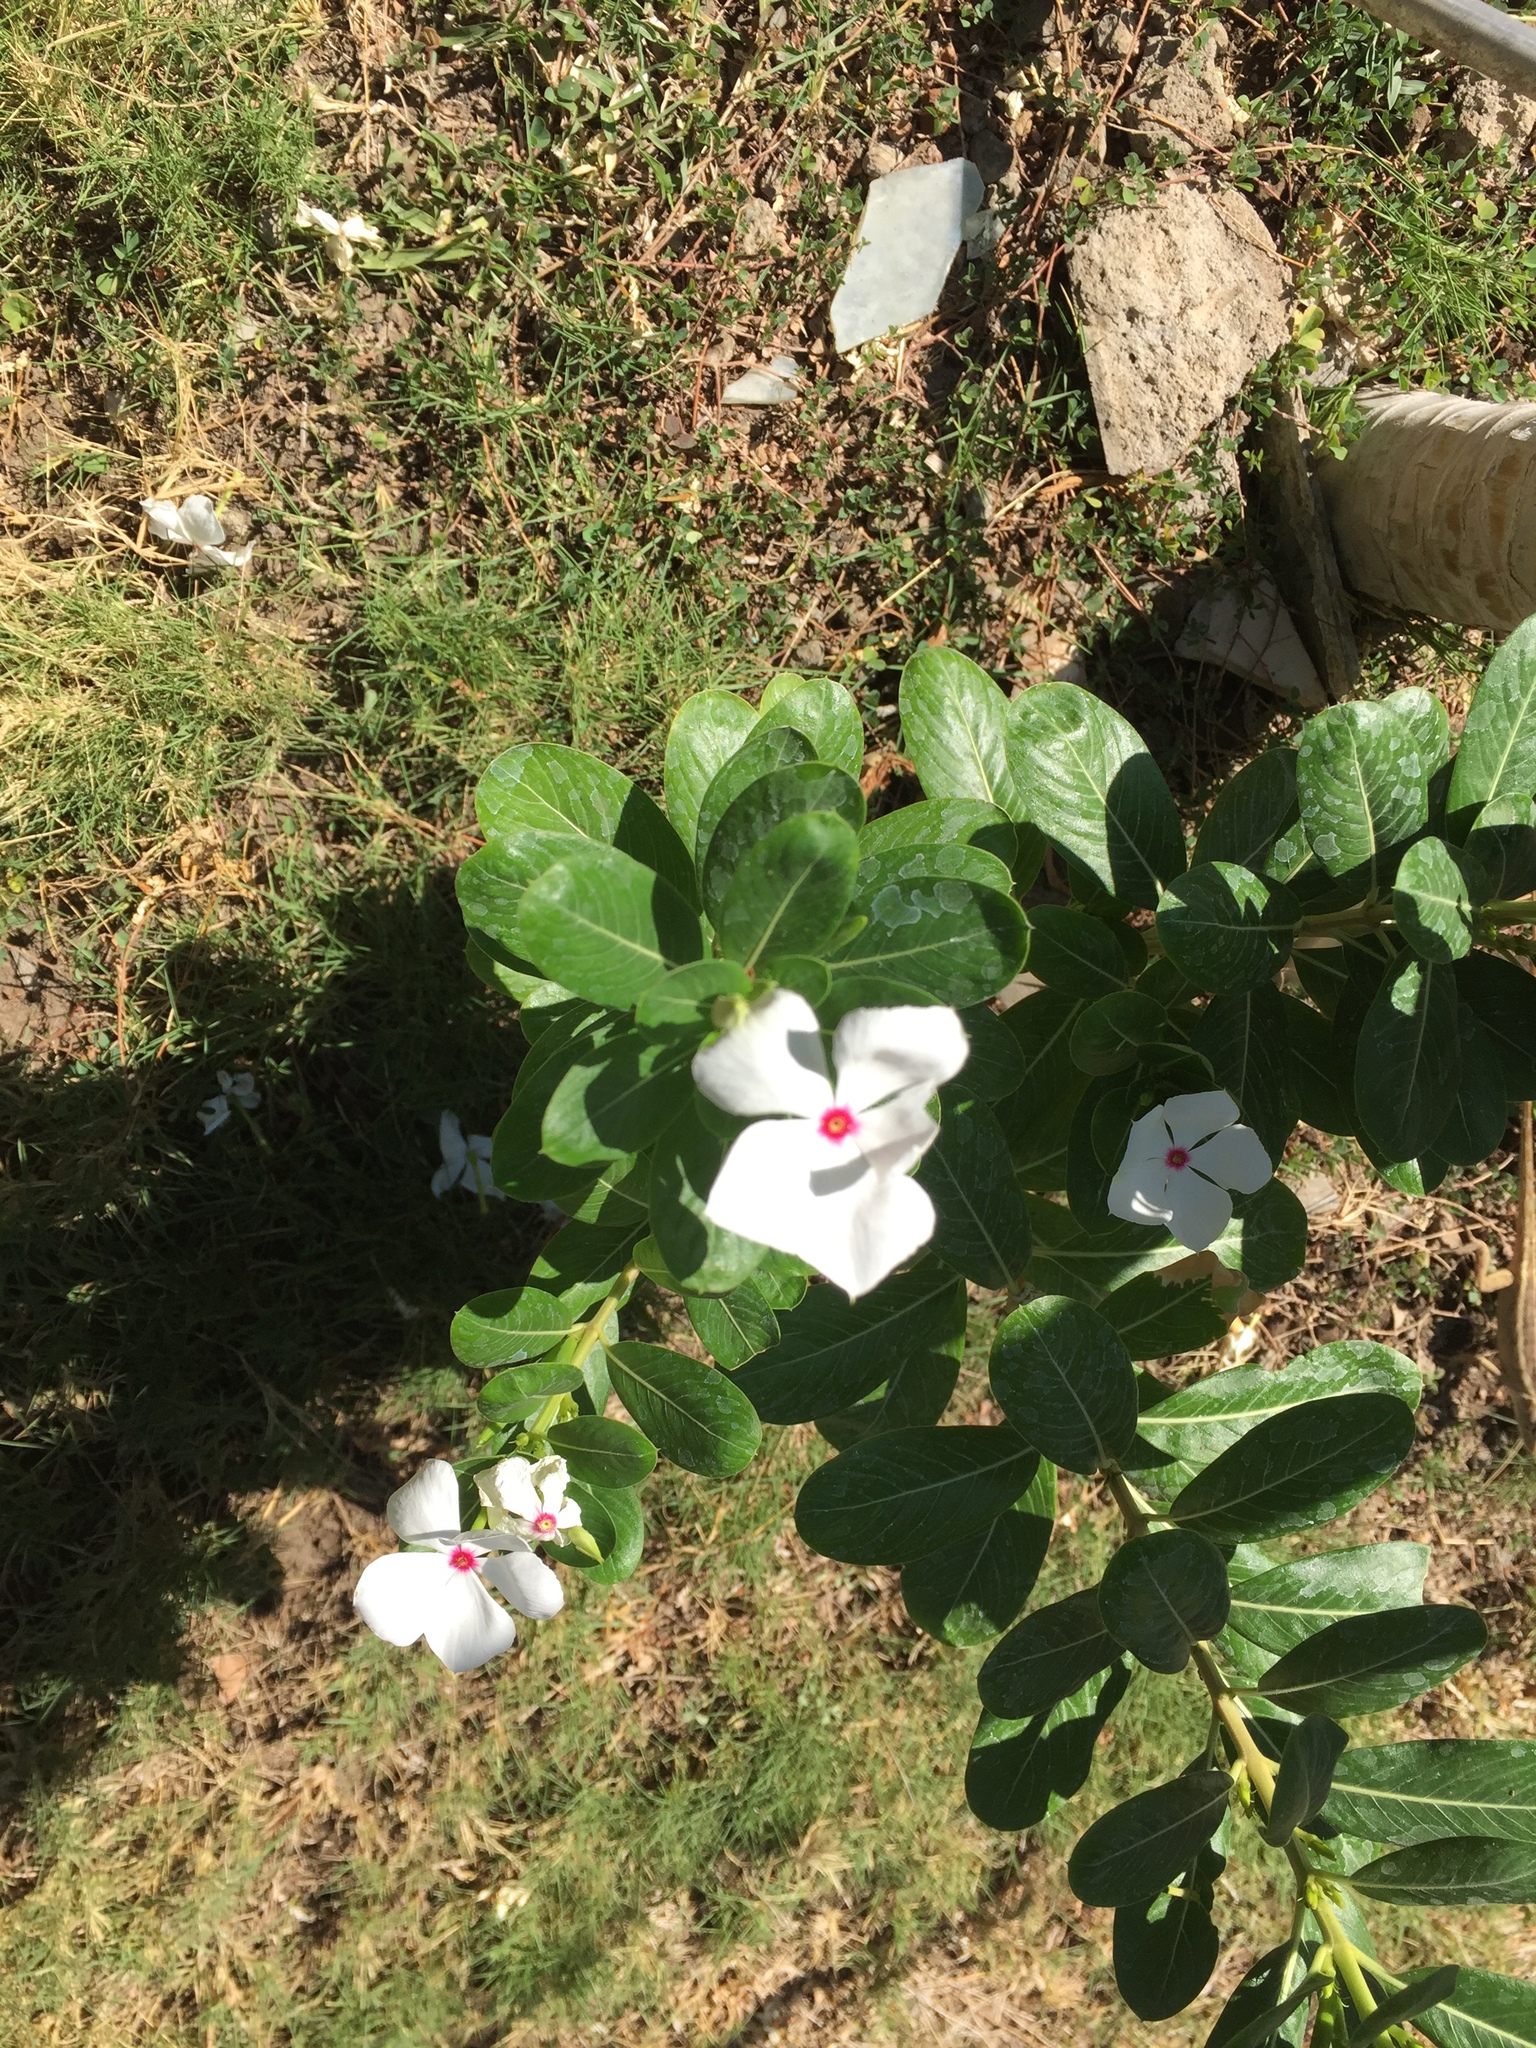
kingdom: Plantae
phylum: Tracheophyta
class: Magnoliopsida
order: Gentianales
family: Apocynaceae
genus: Catharanthus
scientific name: Catharanthus roseus
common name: Madagascar periwinkle
